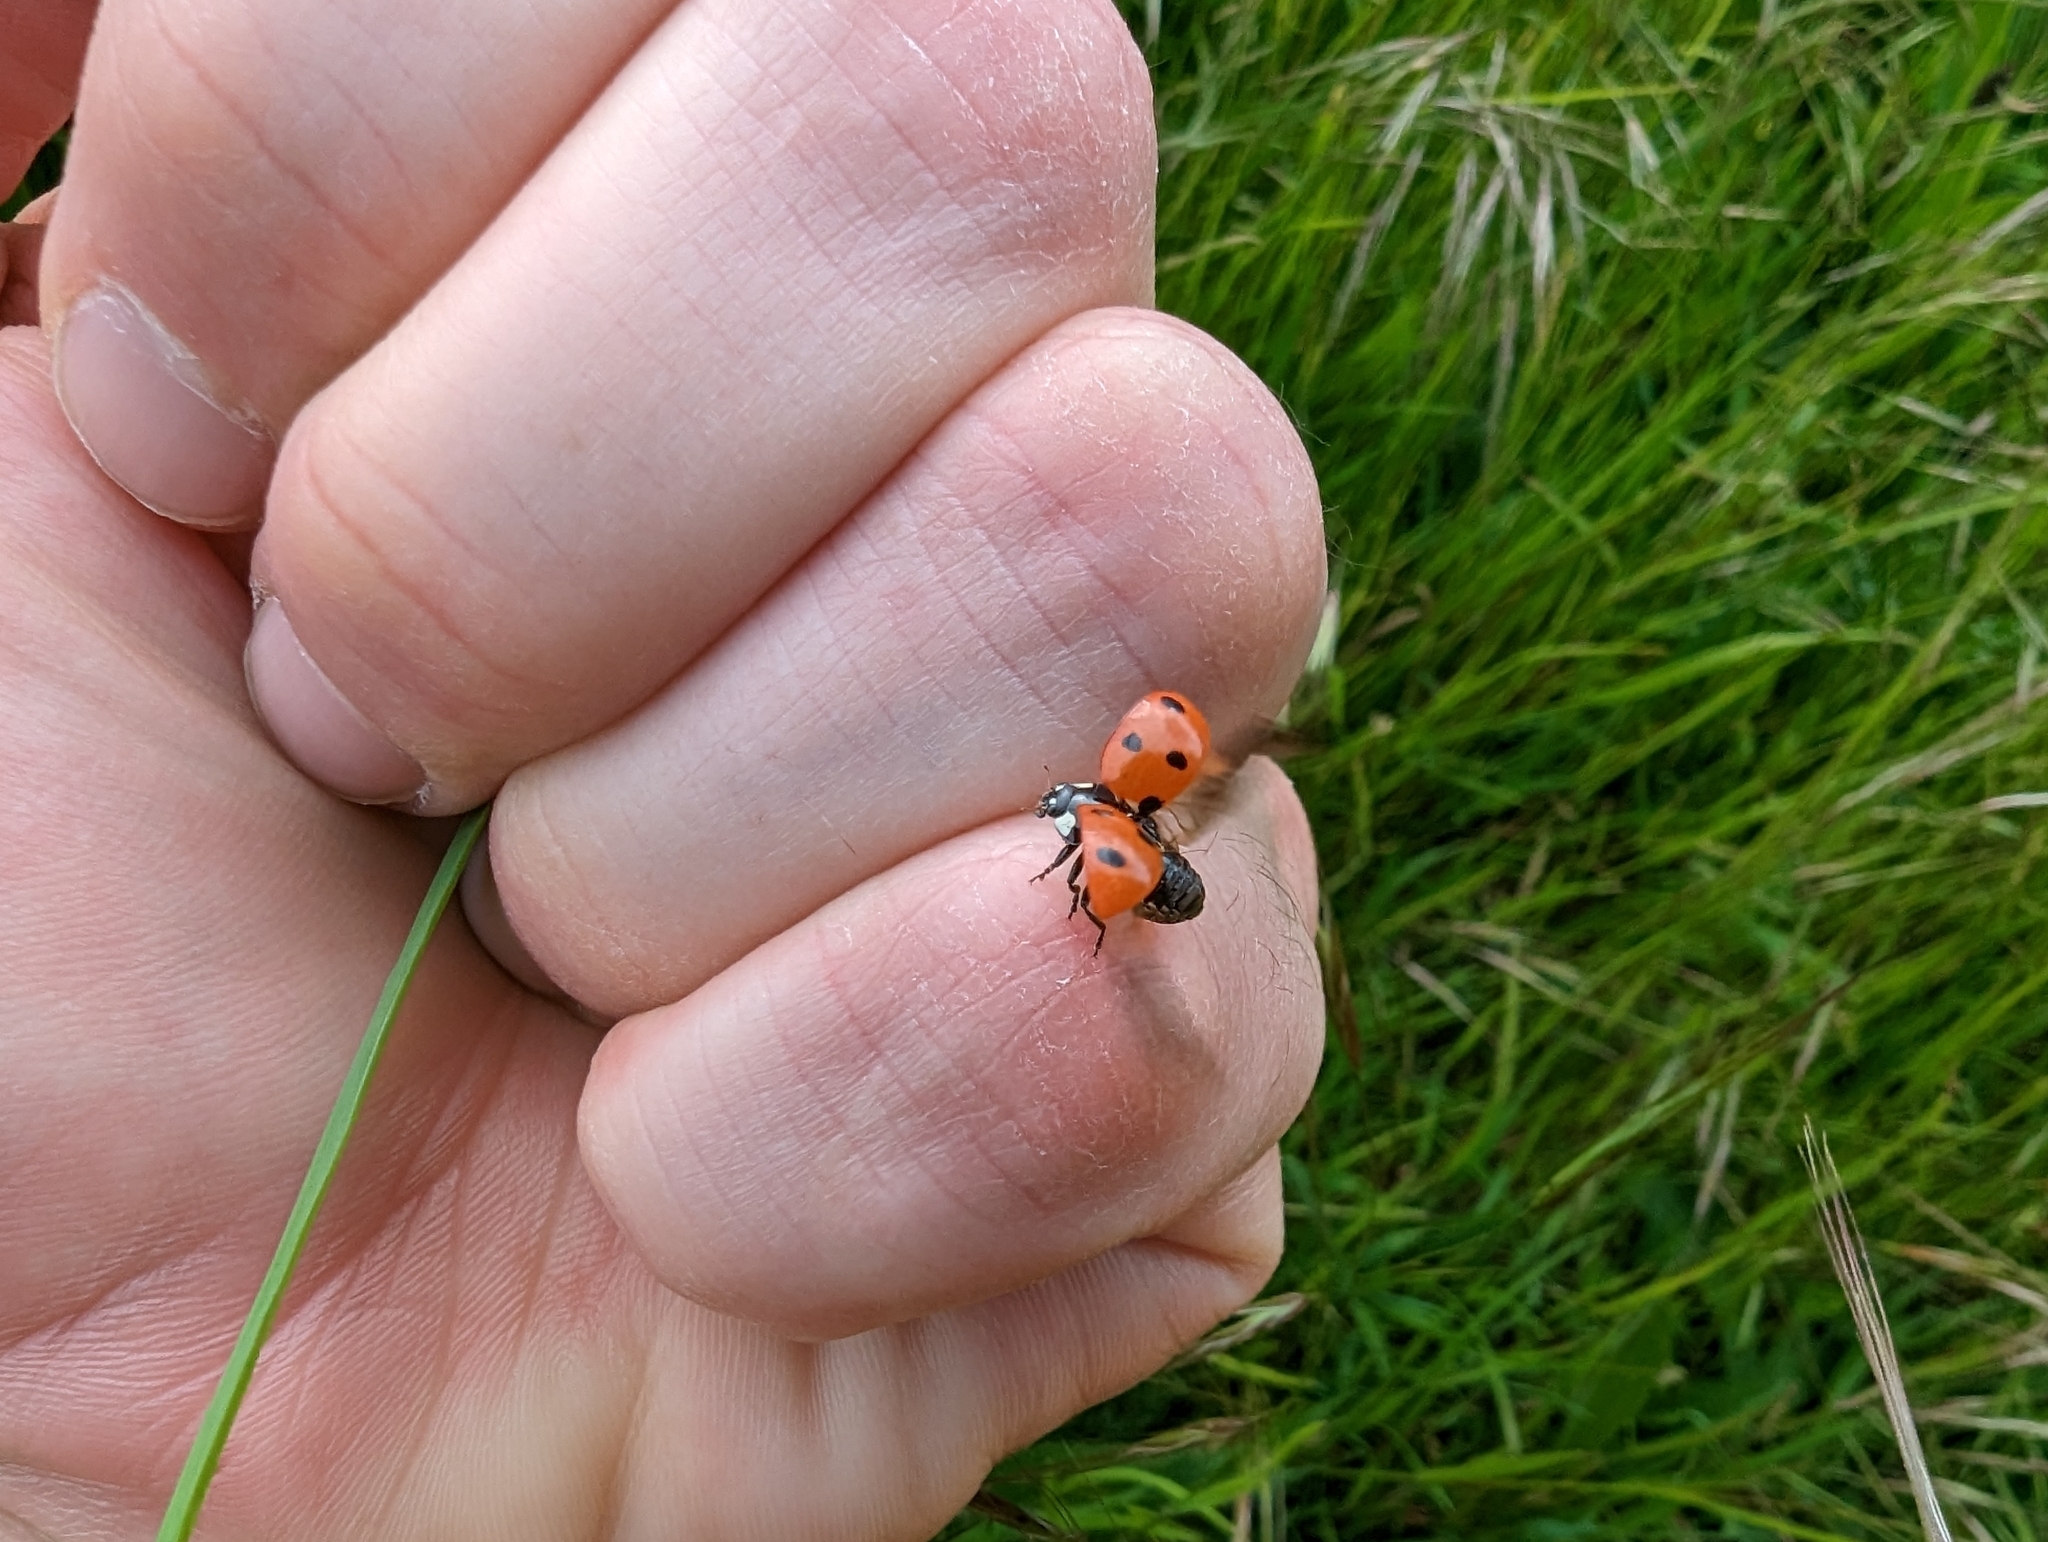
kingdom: Animalia
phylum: Arthropoda
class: Insecta
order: Coleoptera
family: Coccinellidae
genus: Coccinella
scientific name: Coccinella septempunctata
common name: Sevenspotted lady beetle
